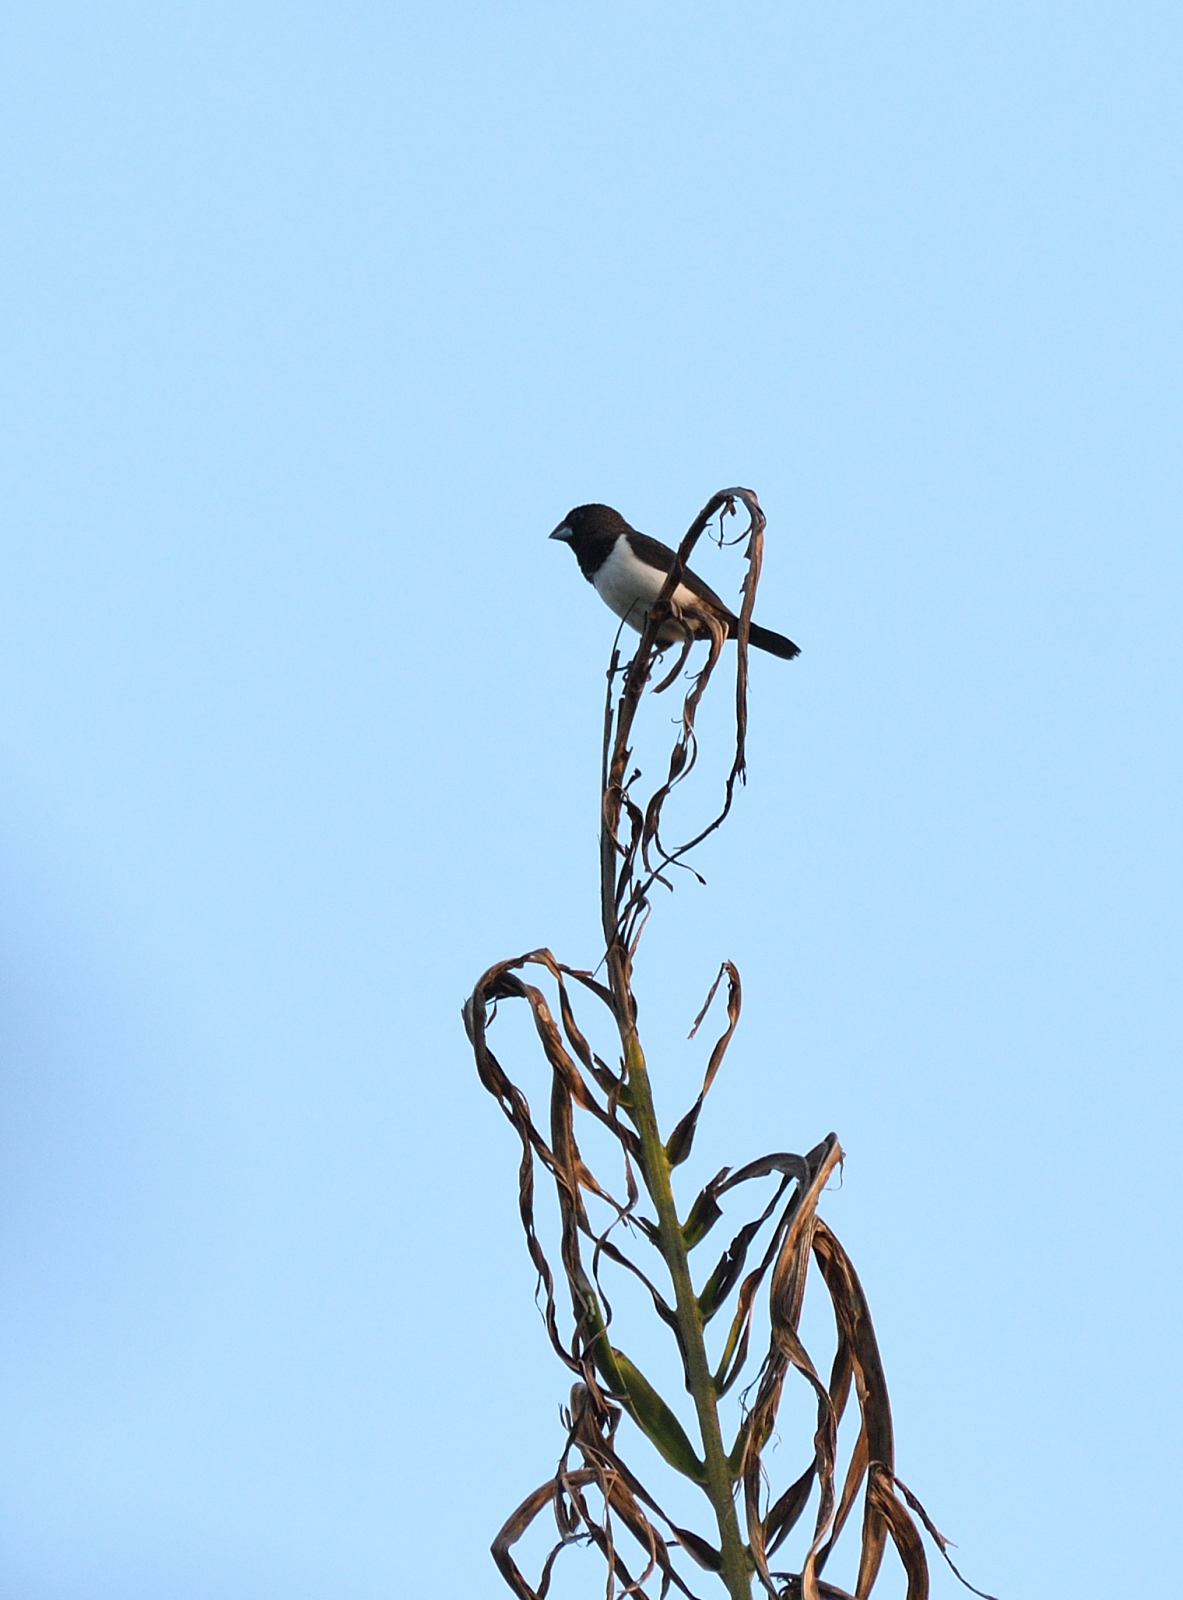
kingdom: Animalia
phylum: Chordata
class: Aves
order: Passeriformes
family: Estrildidae
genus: Lonchura
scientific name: Lonchura striata
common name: White-rumped munia
